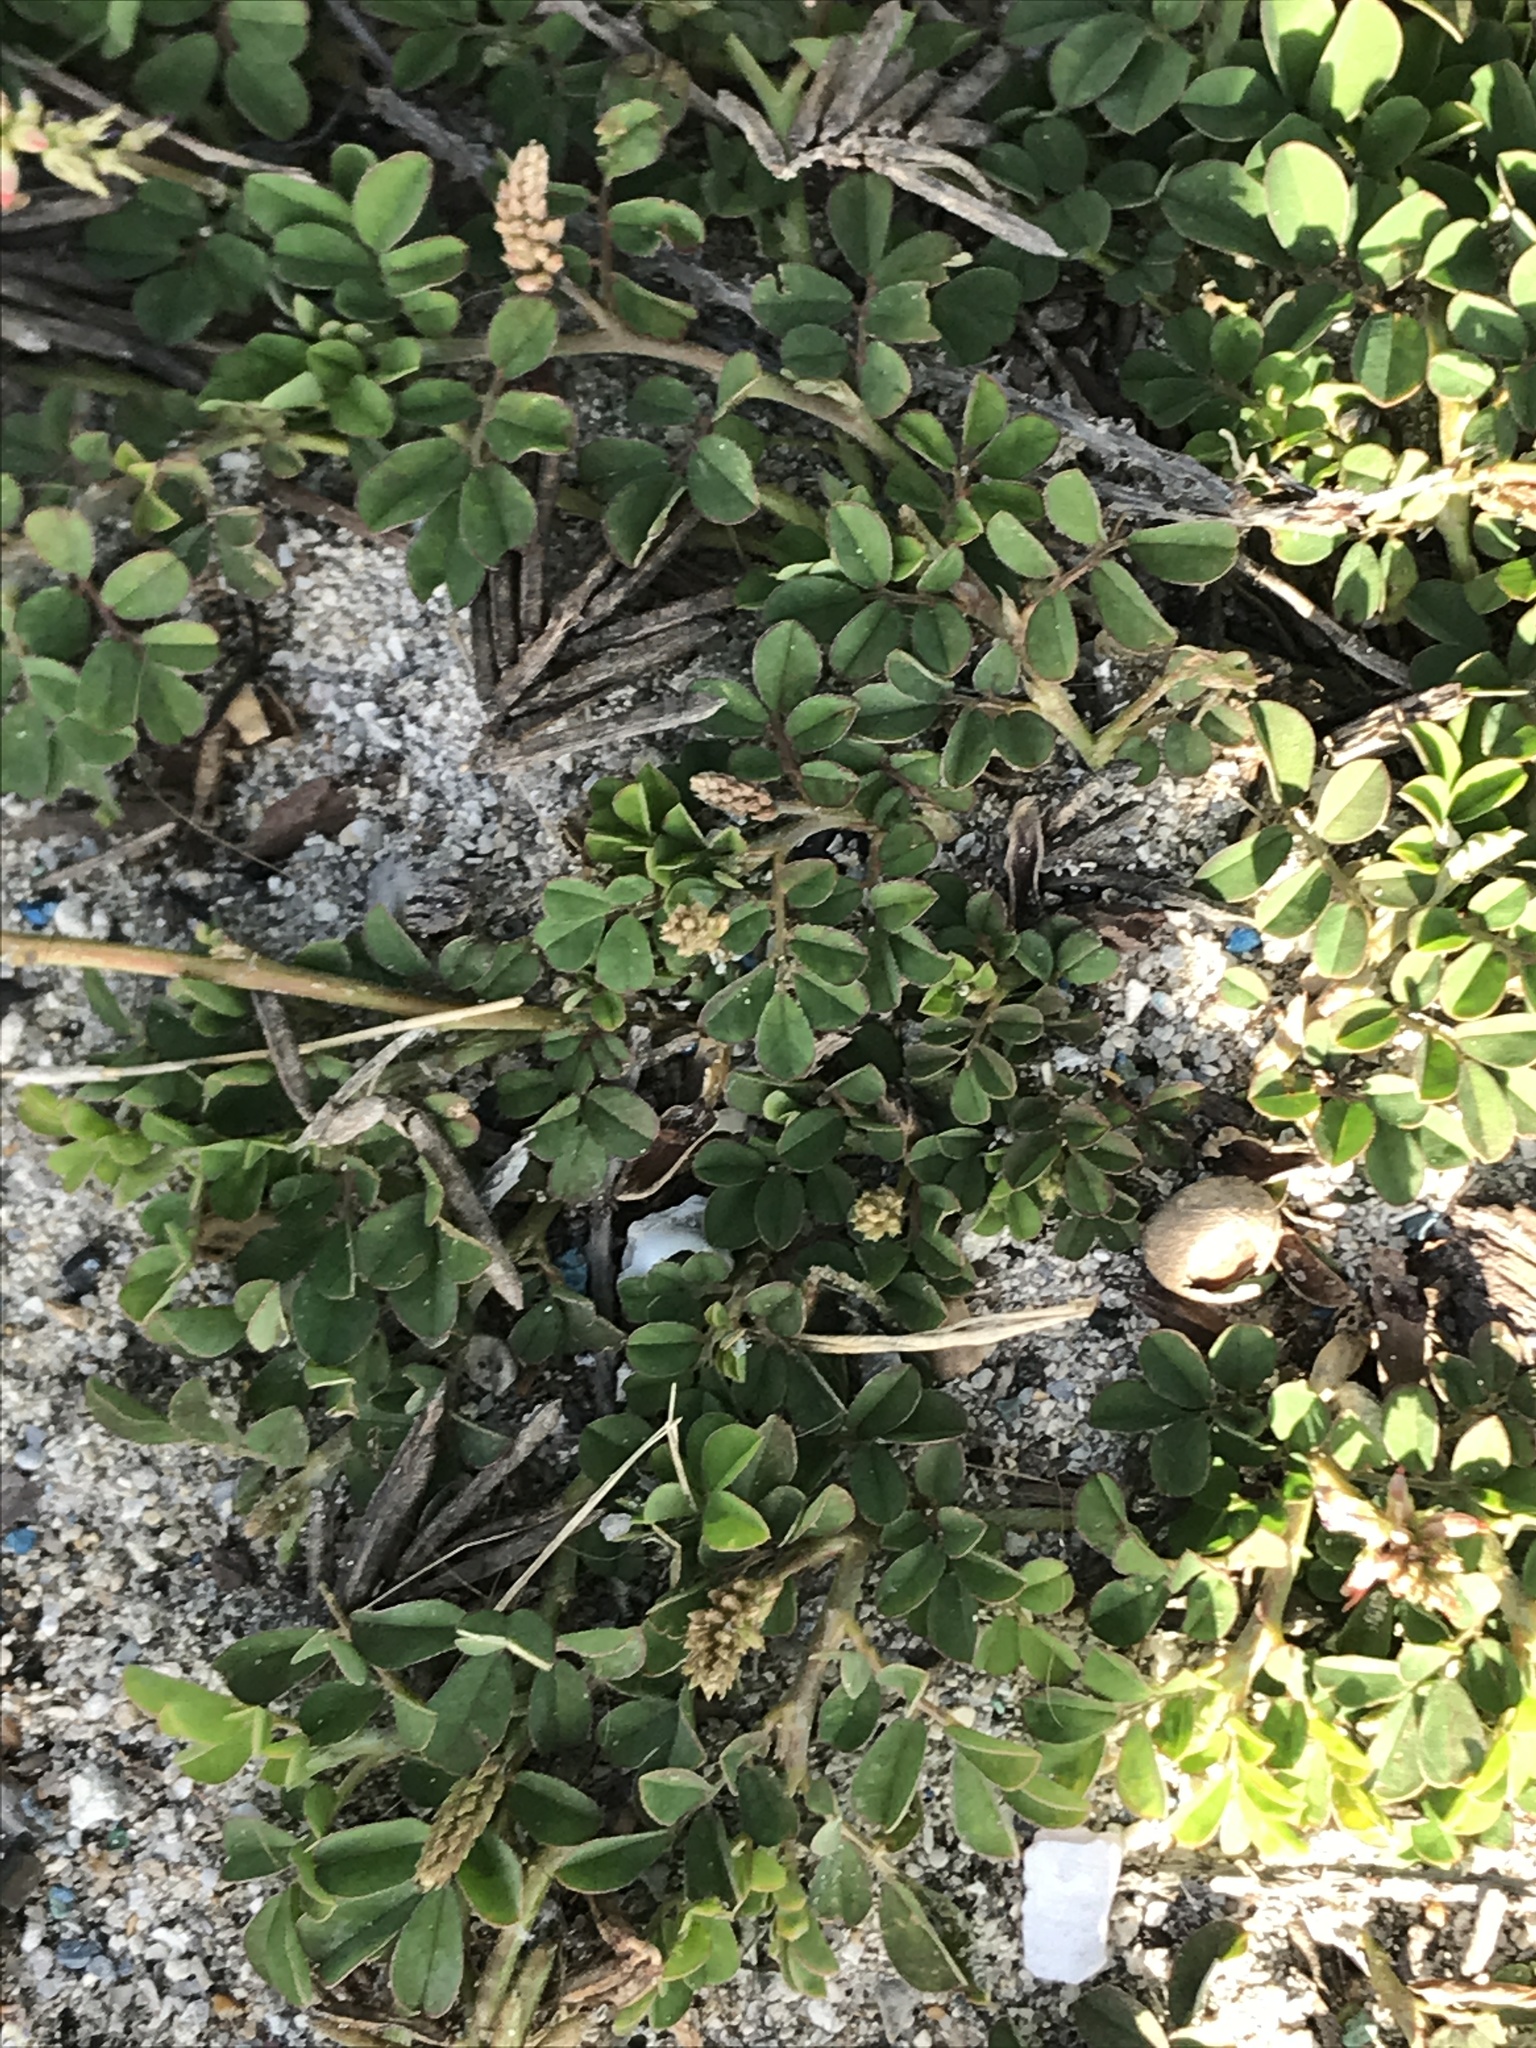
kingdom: Plantae
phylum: Tracheophyta
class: Magnoliopsida
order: Fabales
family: Fabaceae
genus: Indigofera
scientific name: Indigofera spicata
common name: Creeping indigo
